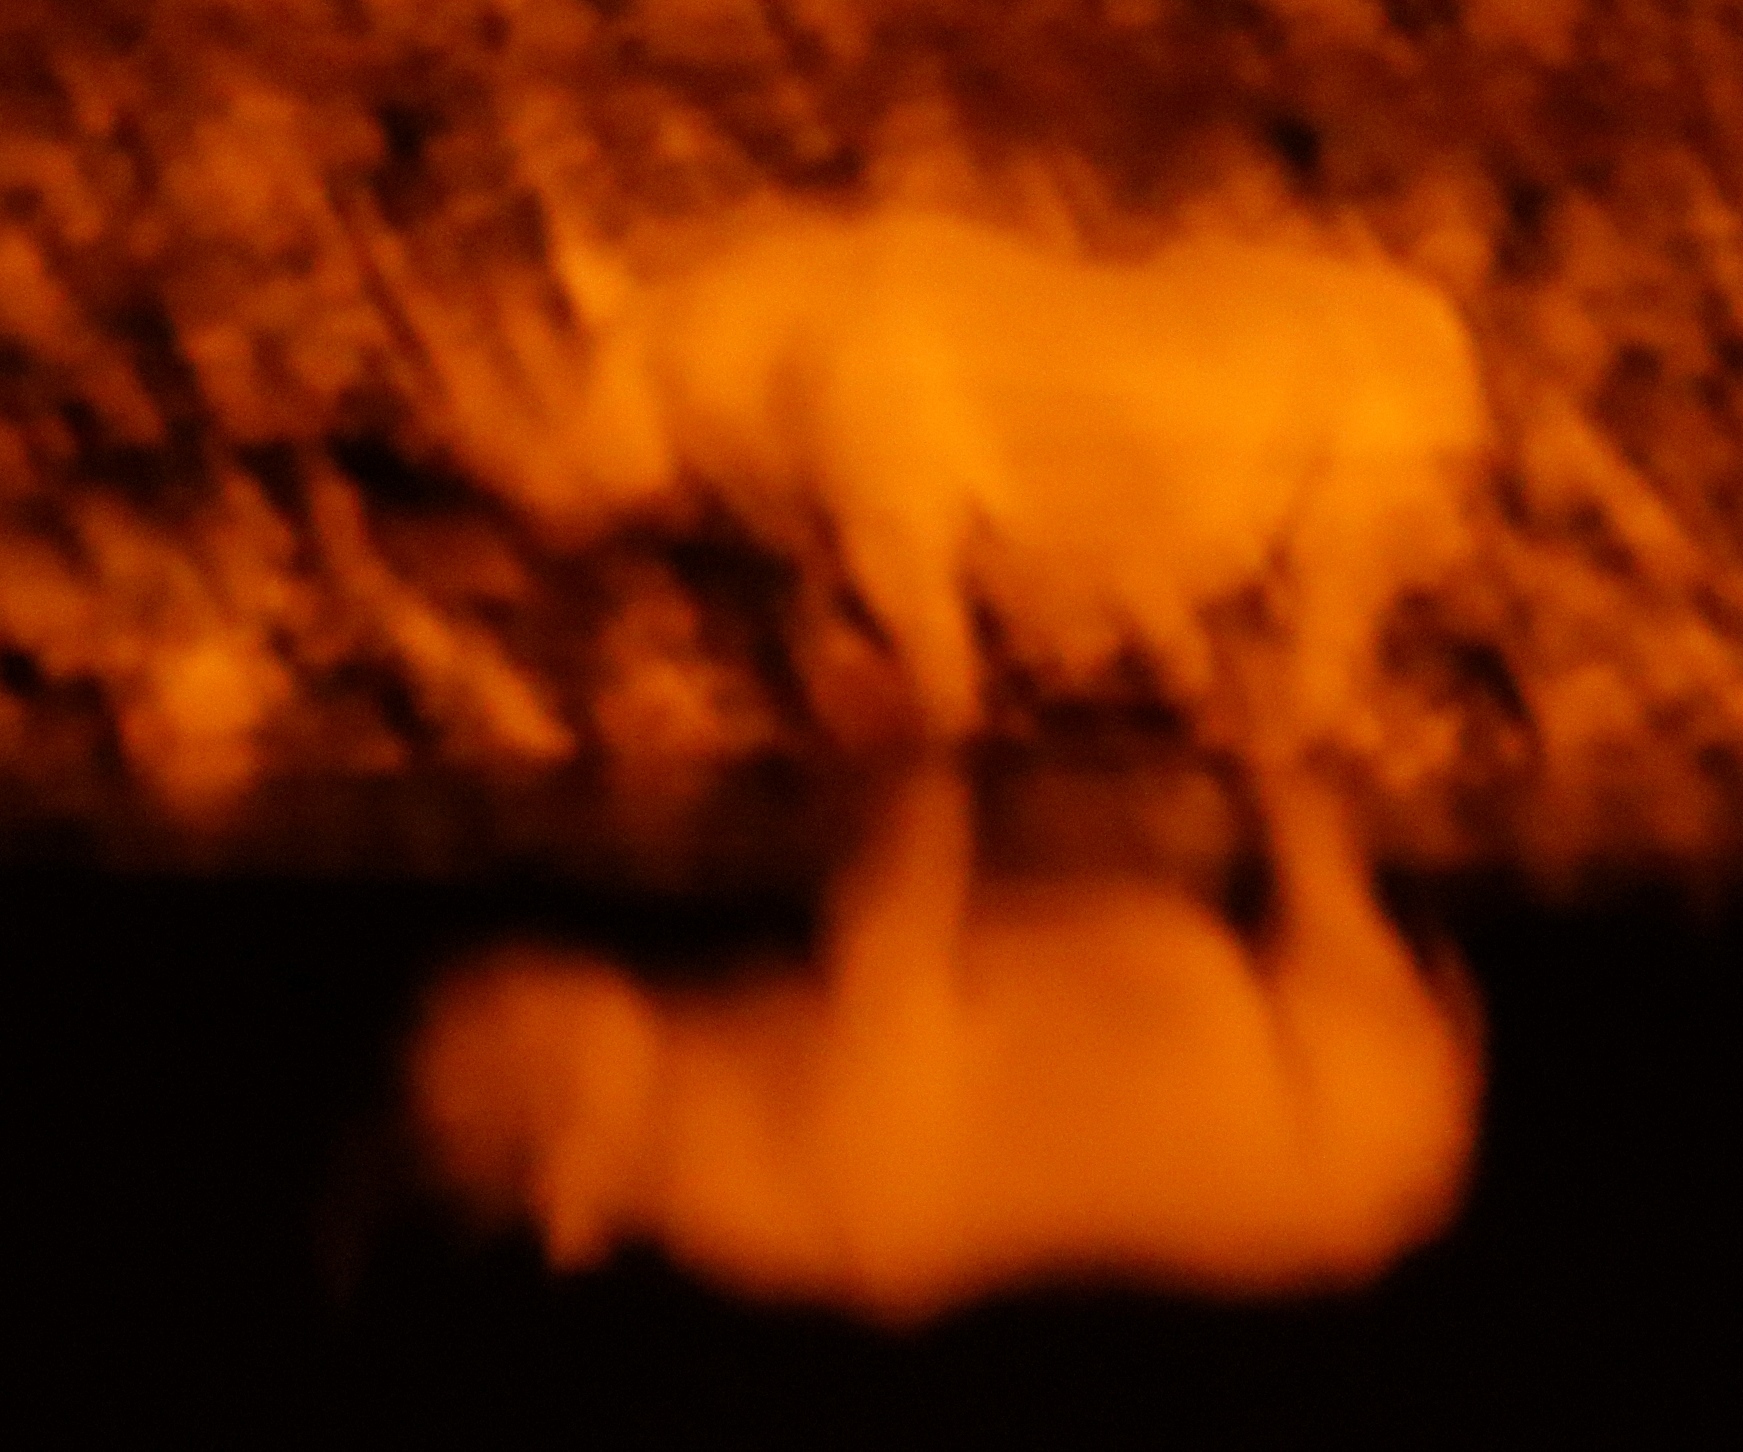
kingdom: Animalia
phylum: Chordata
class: Mammalia
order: Perissodactyla
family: Rhinocerotidae
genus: Diceros
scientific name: Diceros bicornis
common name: Black rhinoceros
